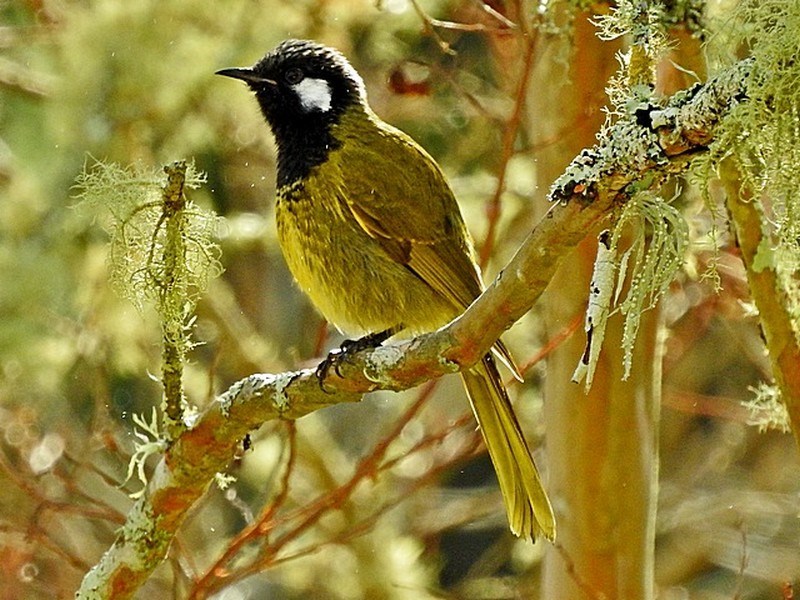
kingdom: Animalia
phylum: Chordata
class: Aves
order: Passeriformes
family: Meliphagidae
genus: Nesoptilotis
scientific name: Nesoptilotis leucotis
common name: White-eared honeyeater
